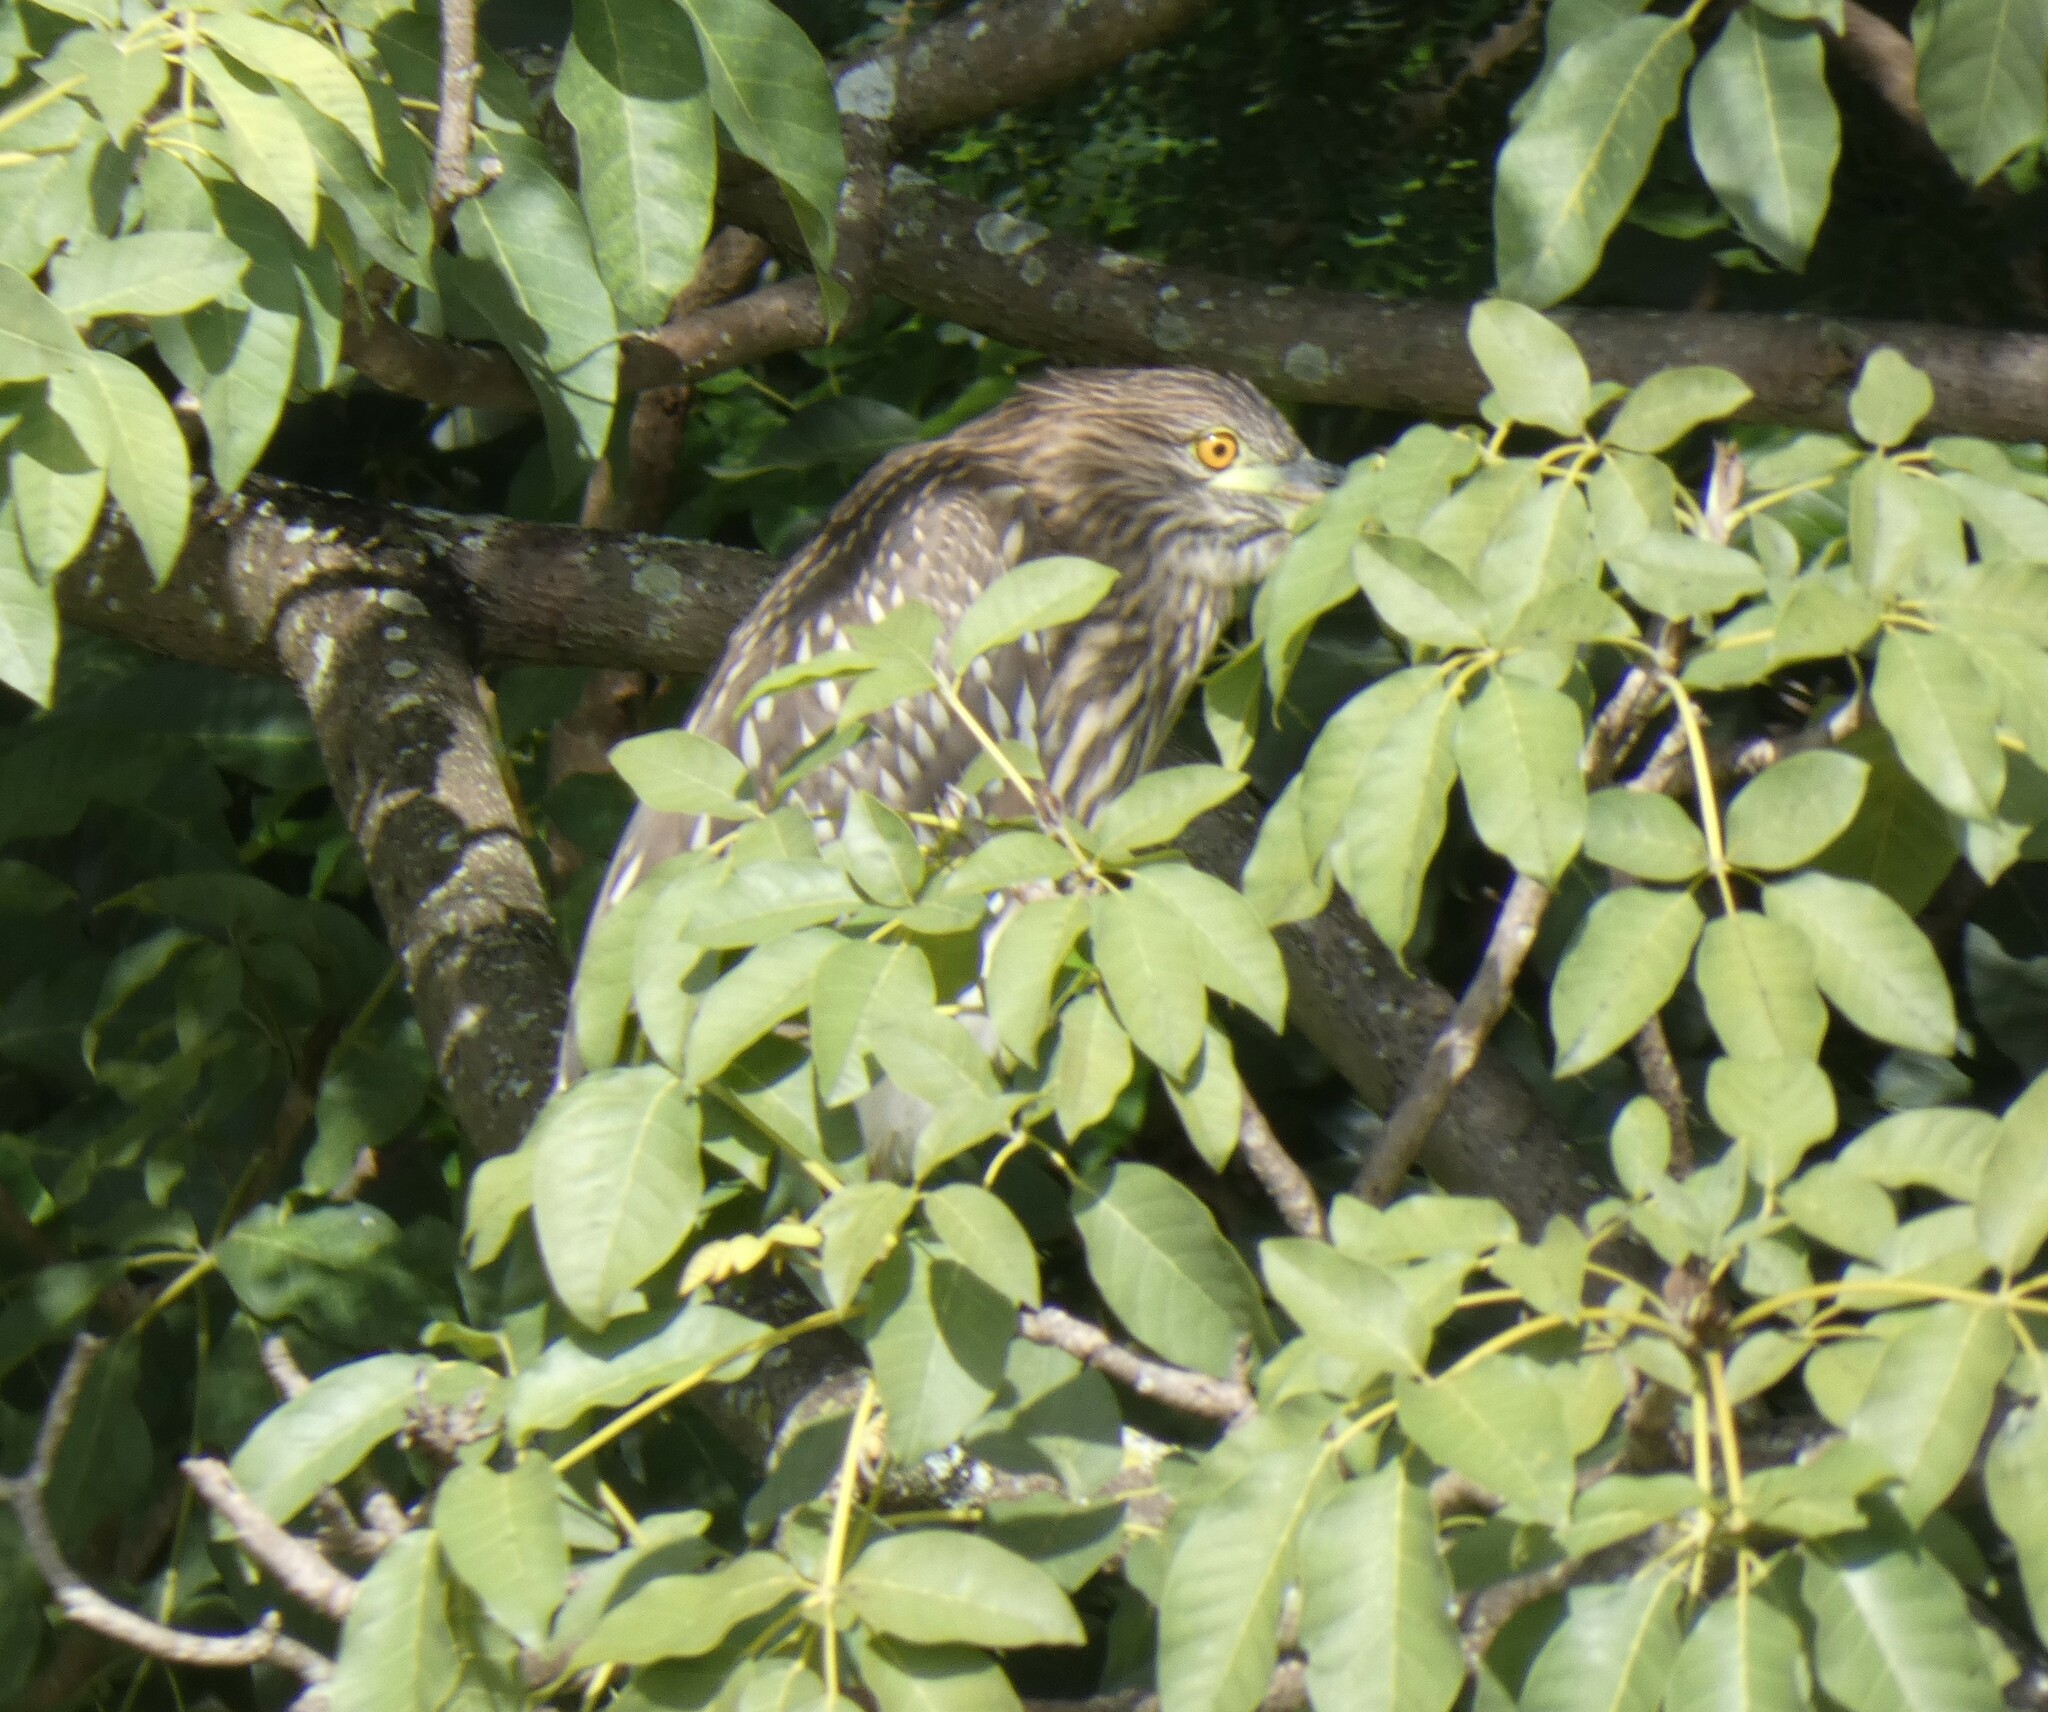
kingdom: Animalia
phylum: Chordata
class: Aves
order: Pelecaniformes
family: Ardeidae
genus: Nycticorax
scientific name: Nycticorax nycticorax
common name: Black-crowned night heron
